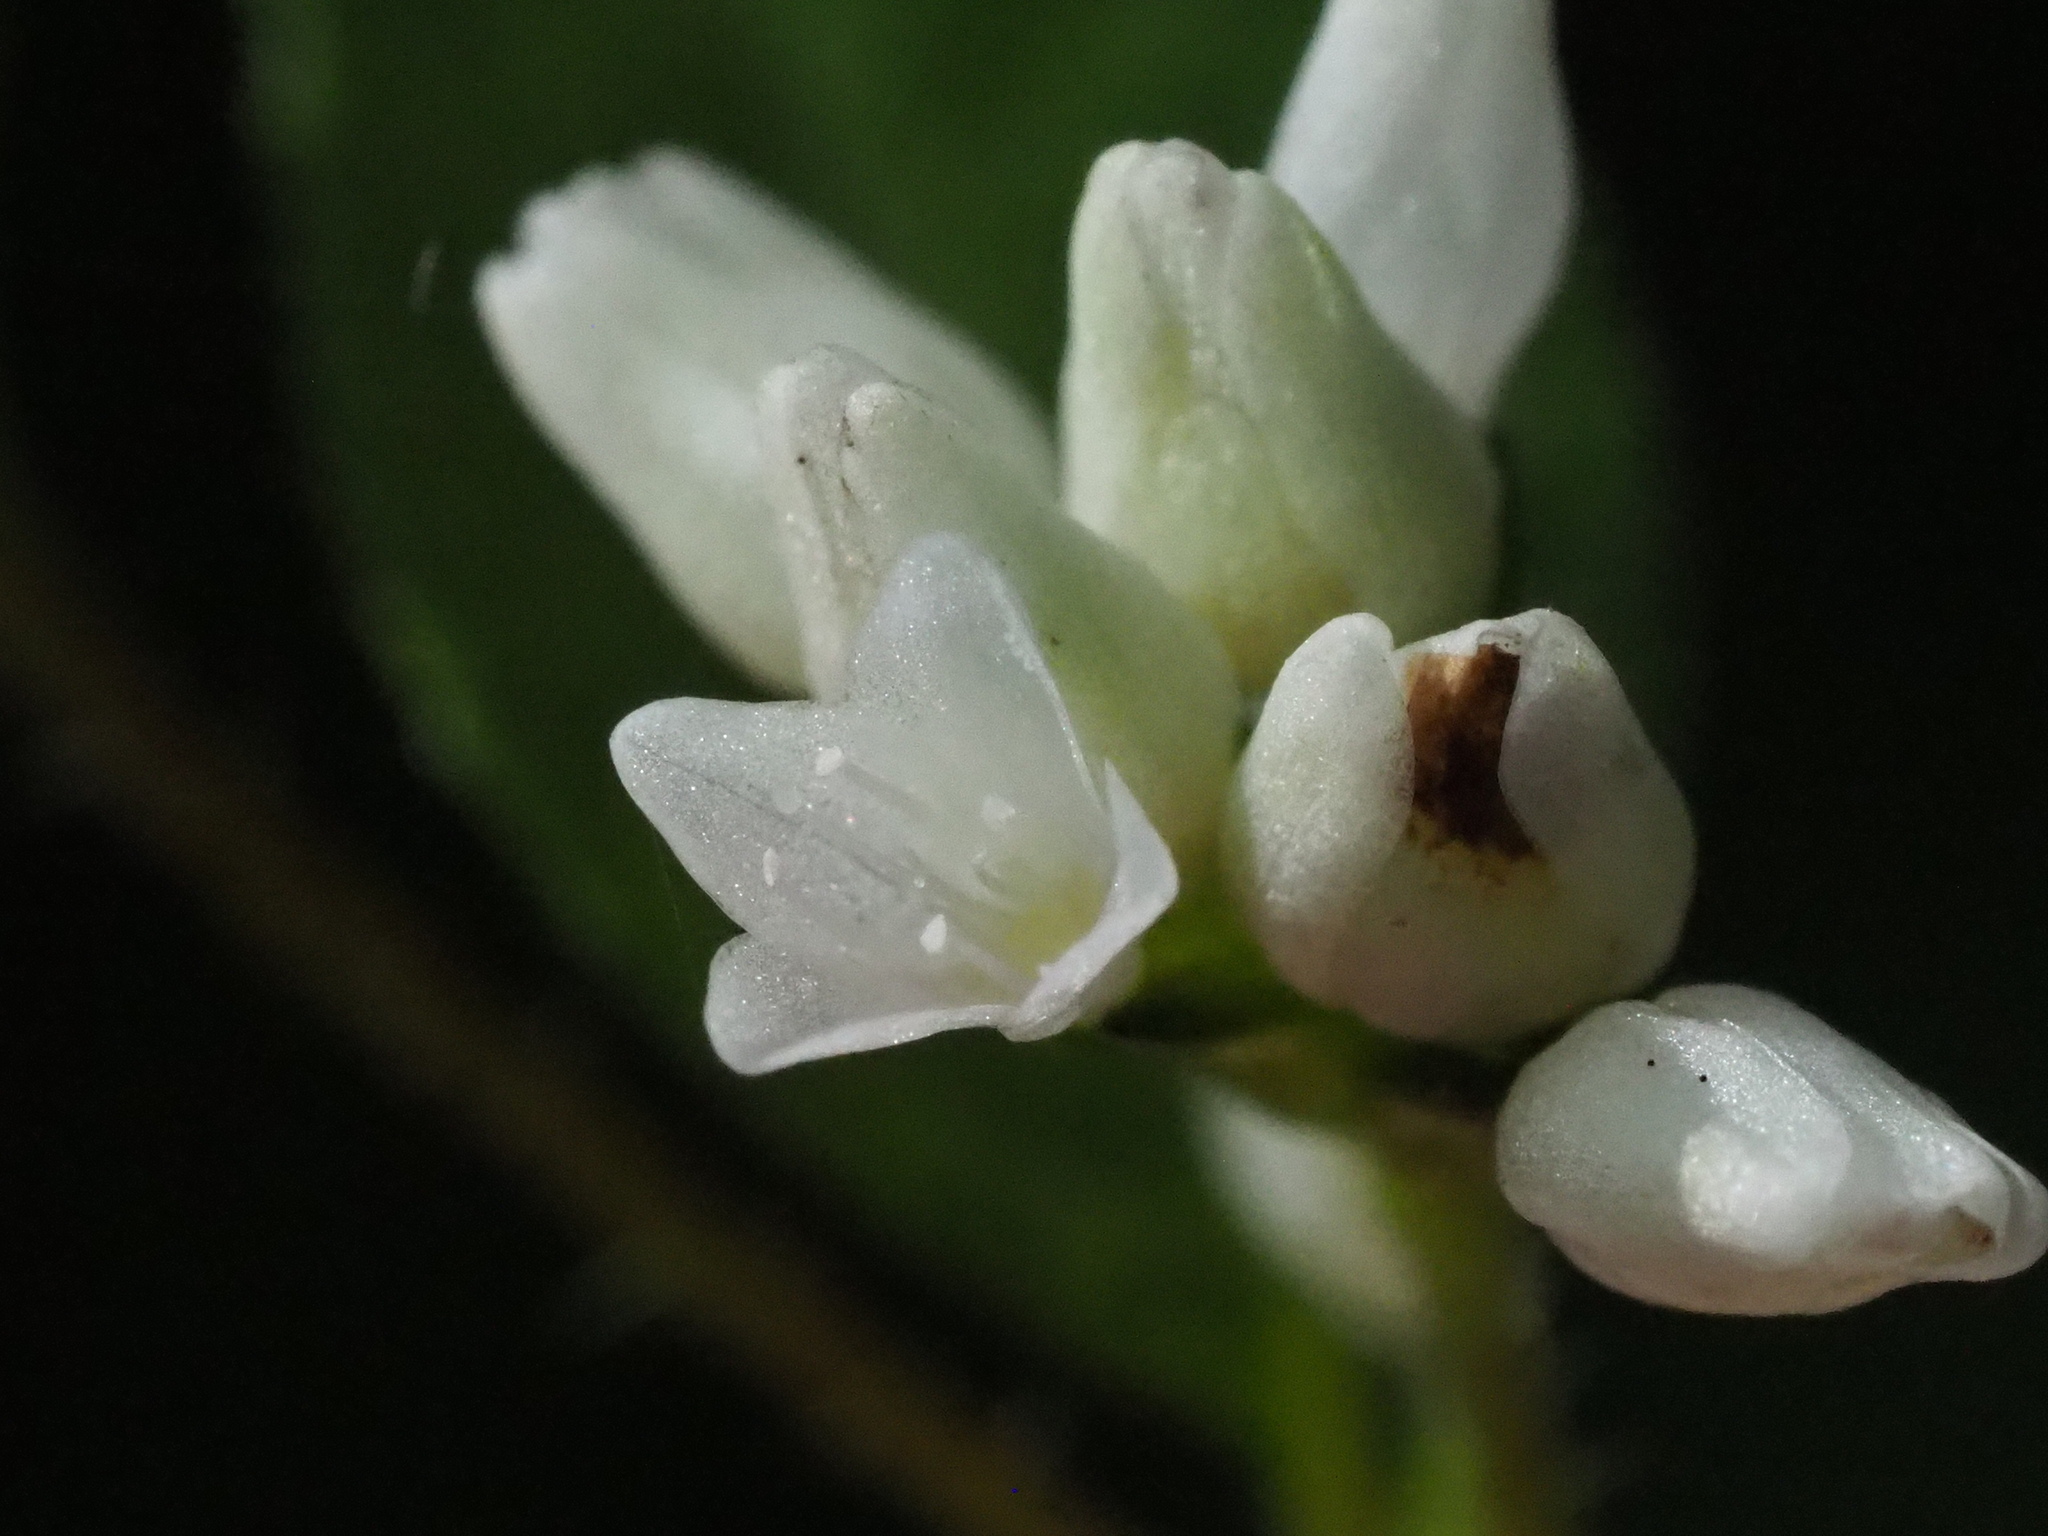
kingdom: Plantae
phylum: Tracheophyta
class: Magnoliopsida
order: Caryophyllales
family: Polygonaceae
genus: Persicaria
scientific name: Persicaria biconvexa
